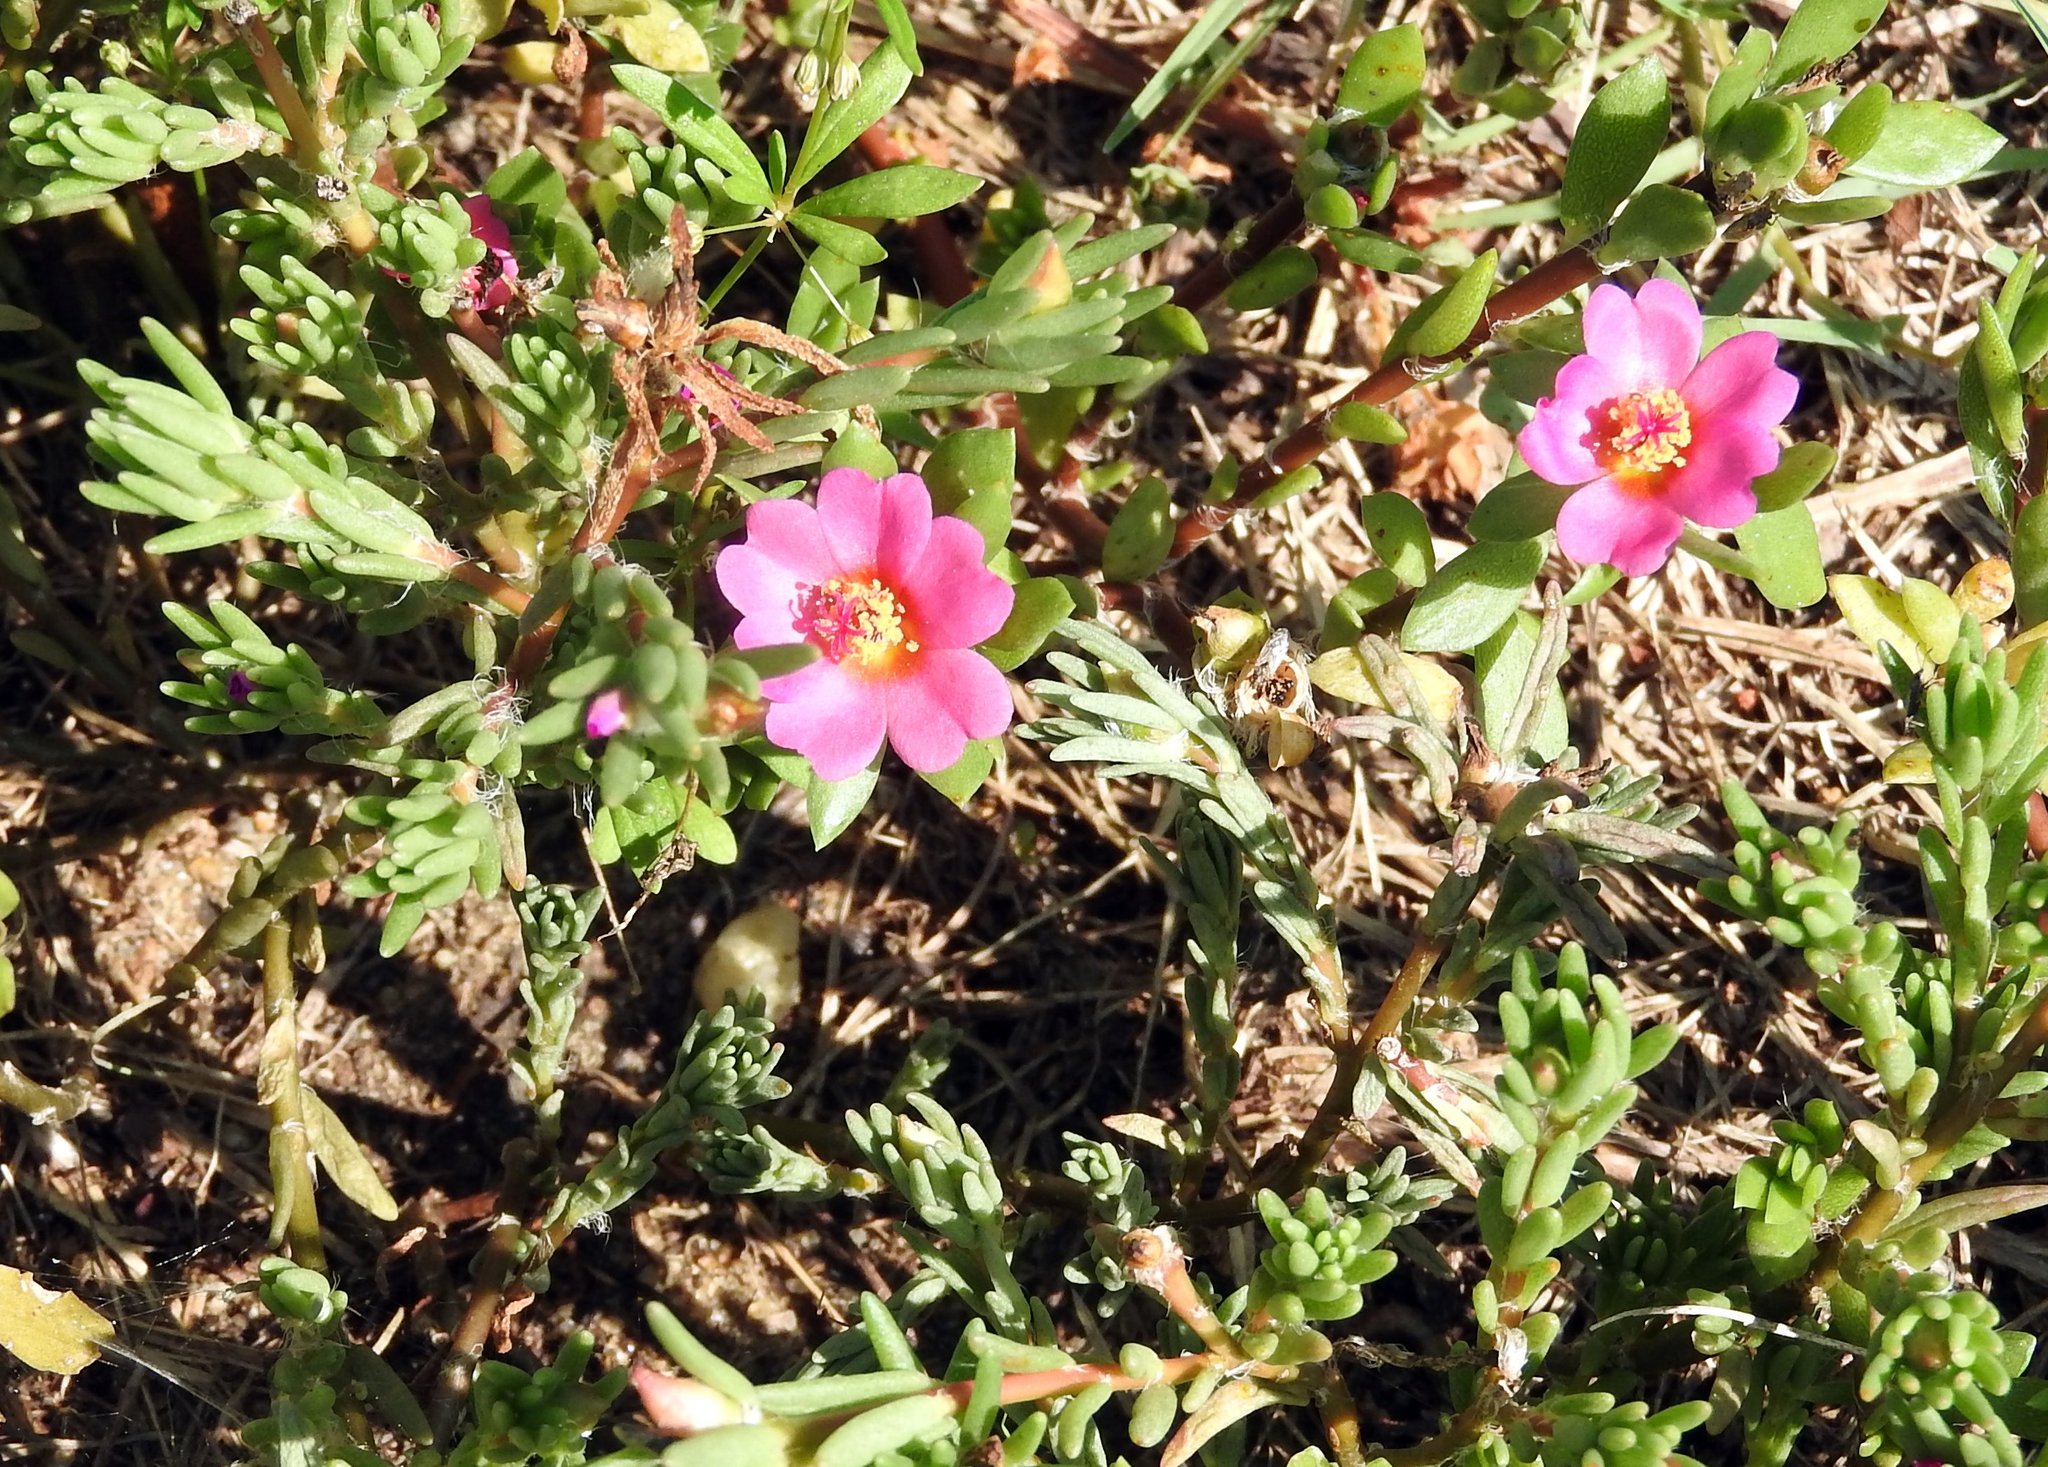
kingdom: Plantae
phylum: Tracheophyta
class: Magnoliopsida
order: Caryophyllales
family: Portulacaceae
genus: Portulaca
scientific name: Portulaca amilis
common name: Paraguayan purslane
